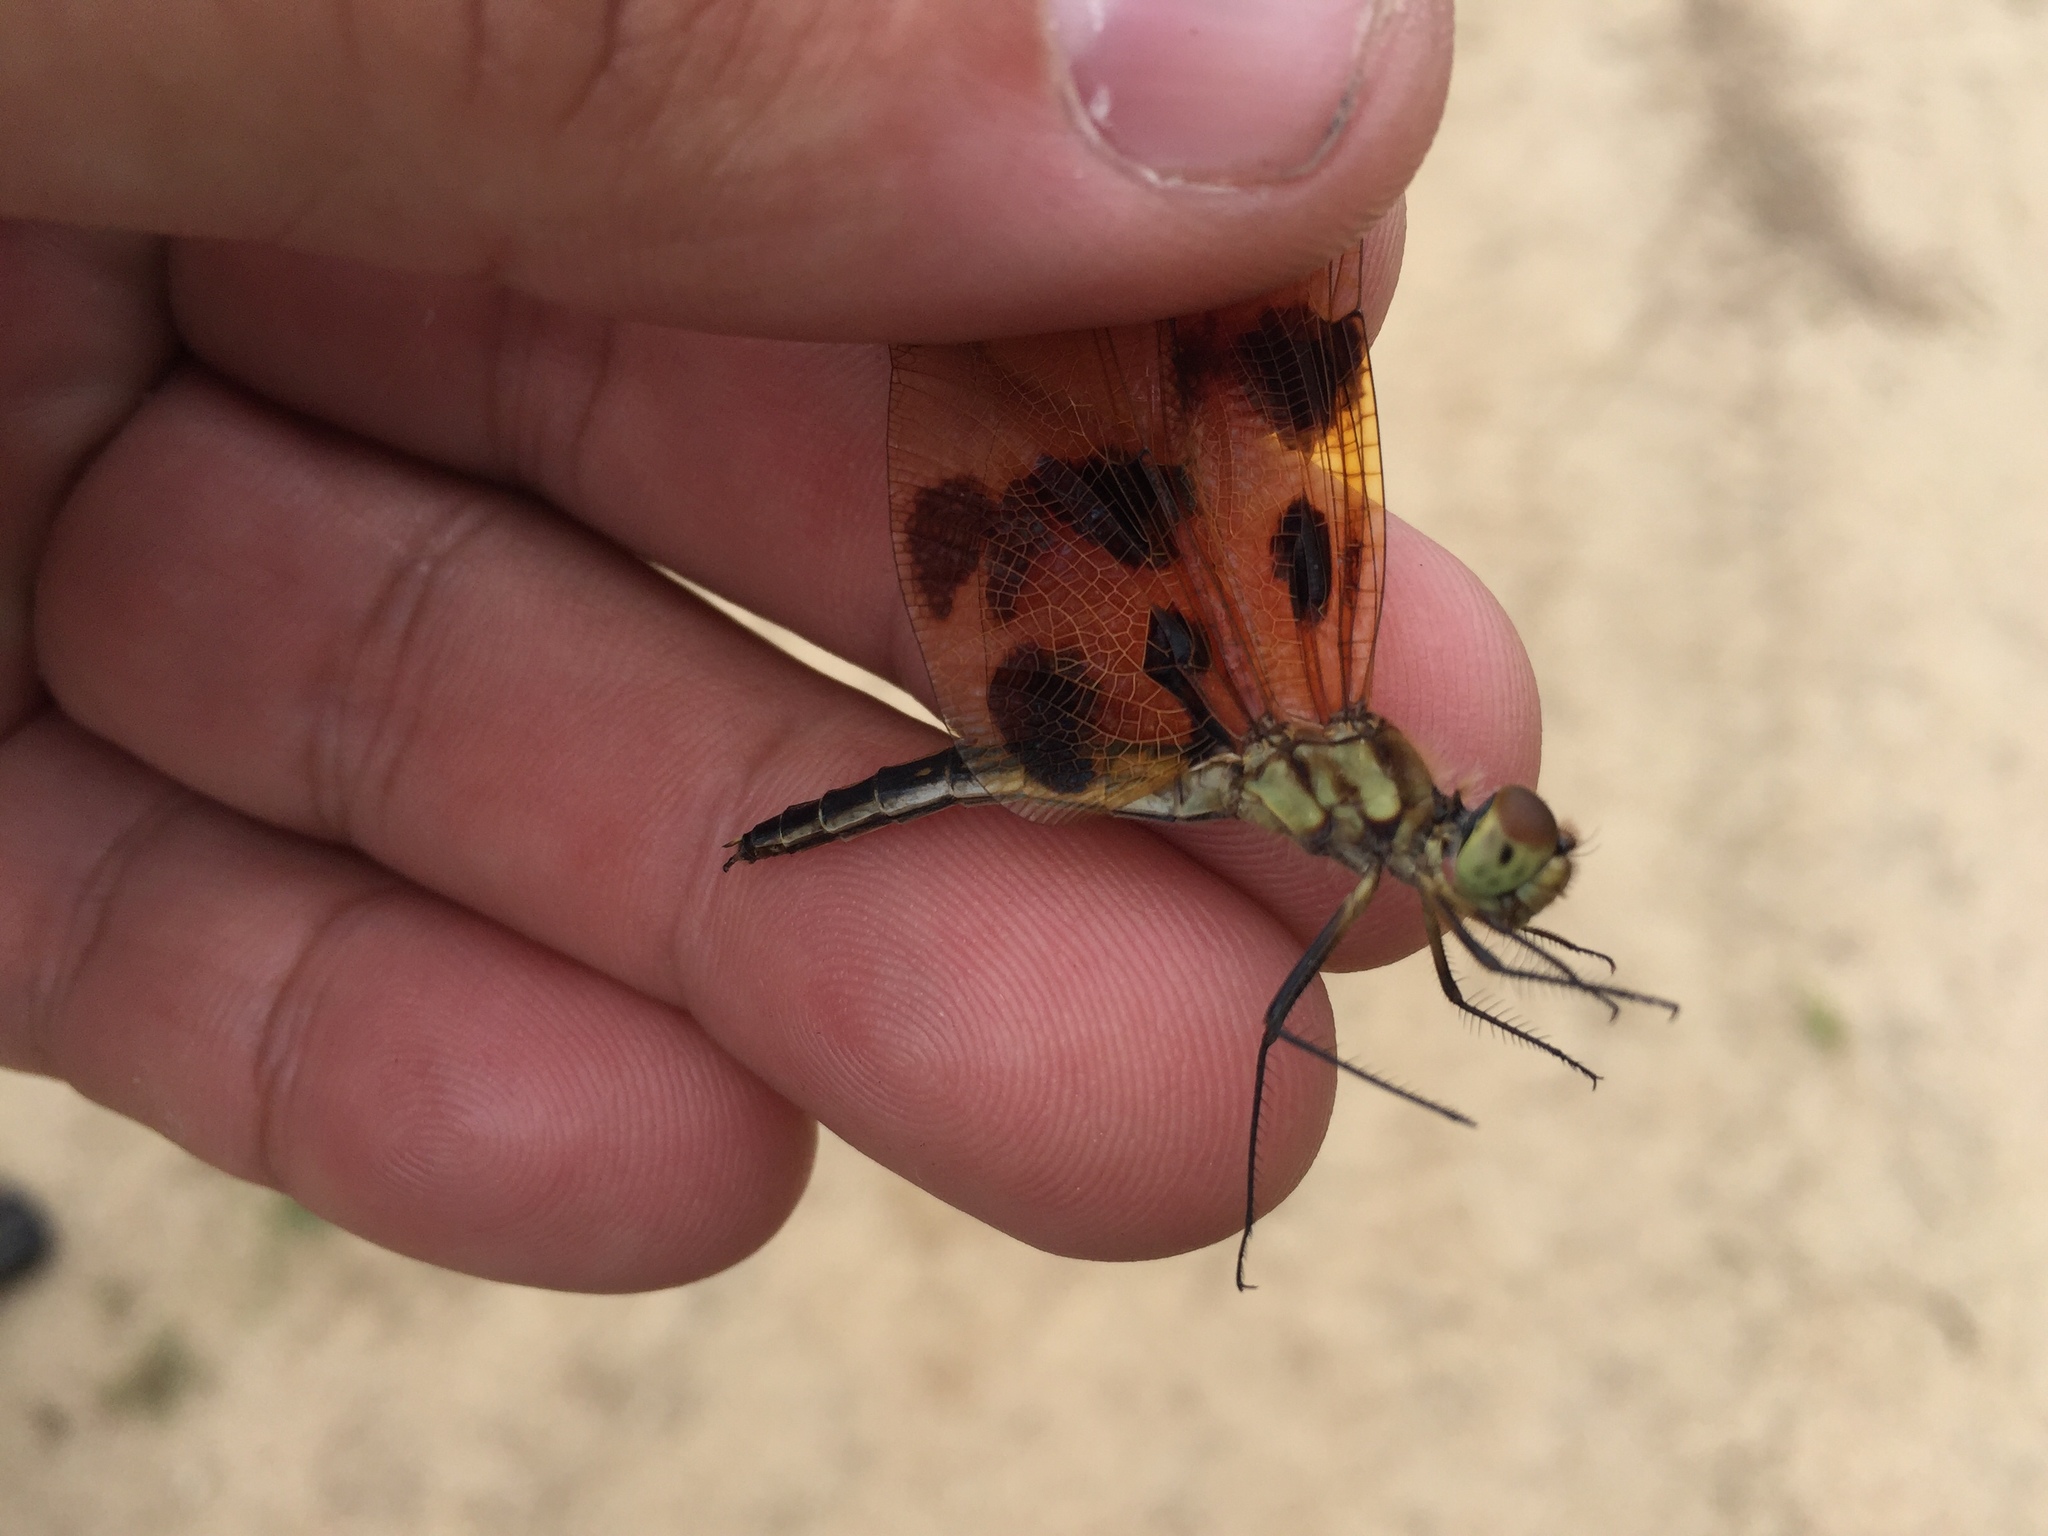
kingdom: Animalia
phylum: Arthropoda
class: Insecta
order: Odonata
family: Libellulidae
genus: Celithemis
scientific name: Celithemis eponina
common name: Halloween pennant
